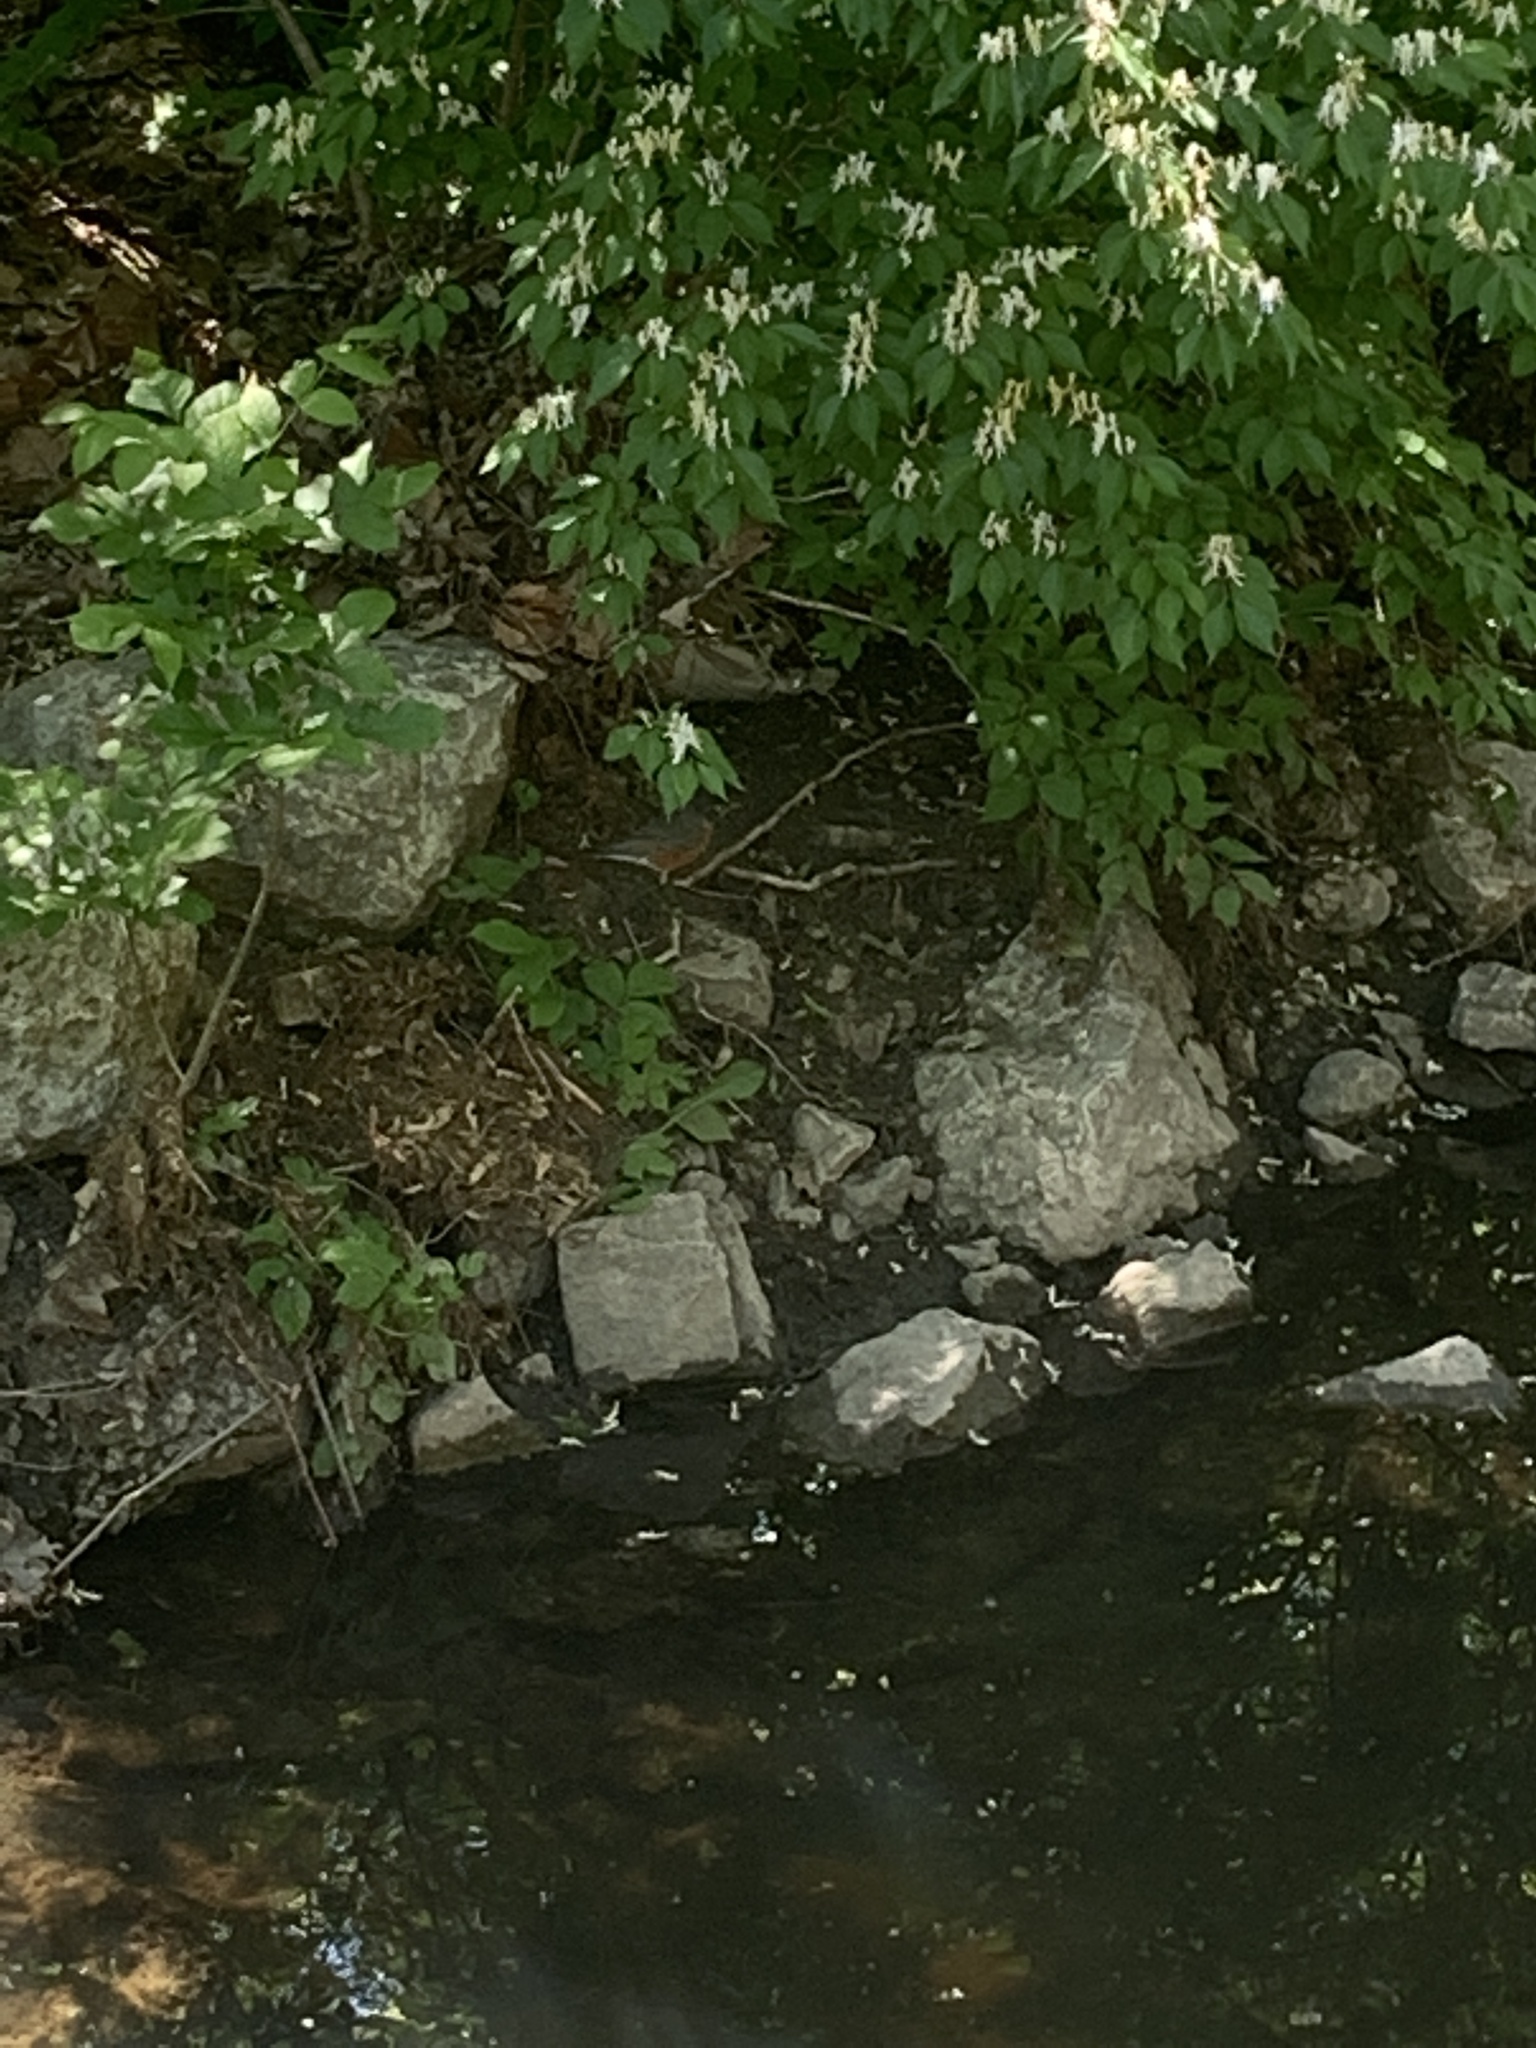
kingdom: Animalia
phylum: Chordata
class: Aves
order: Passeriformes
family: Turdidae
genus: Turdus
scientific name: Turdus migratorius
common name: American robin
